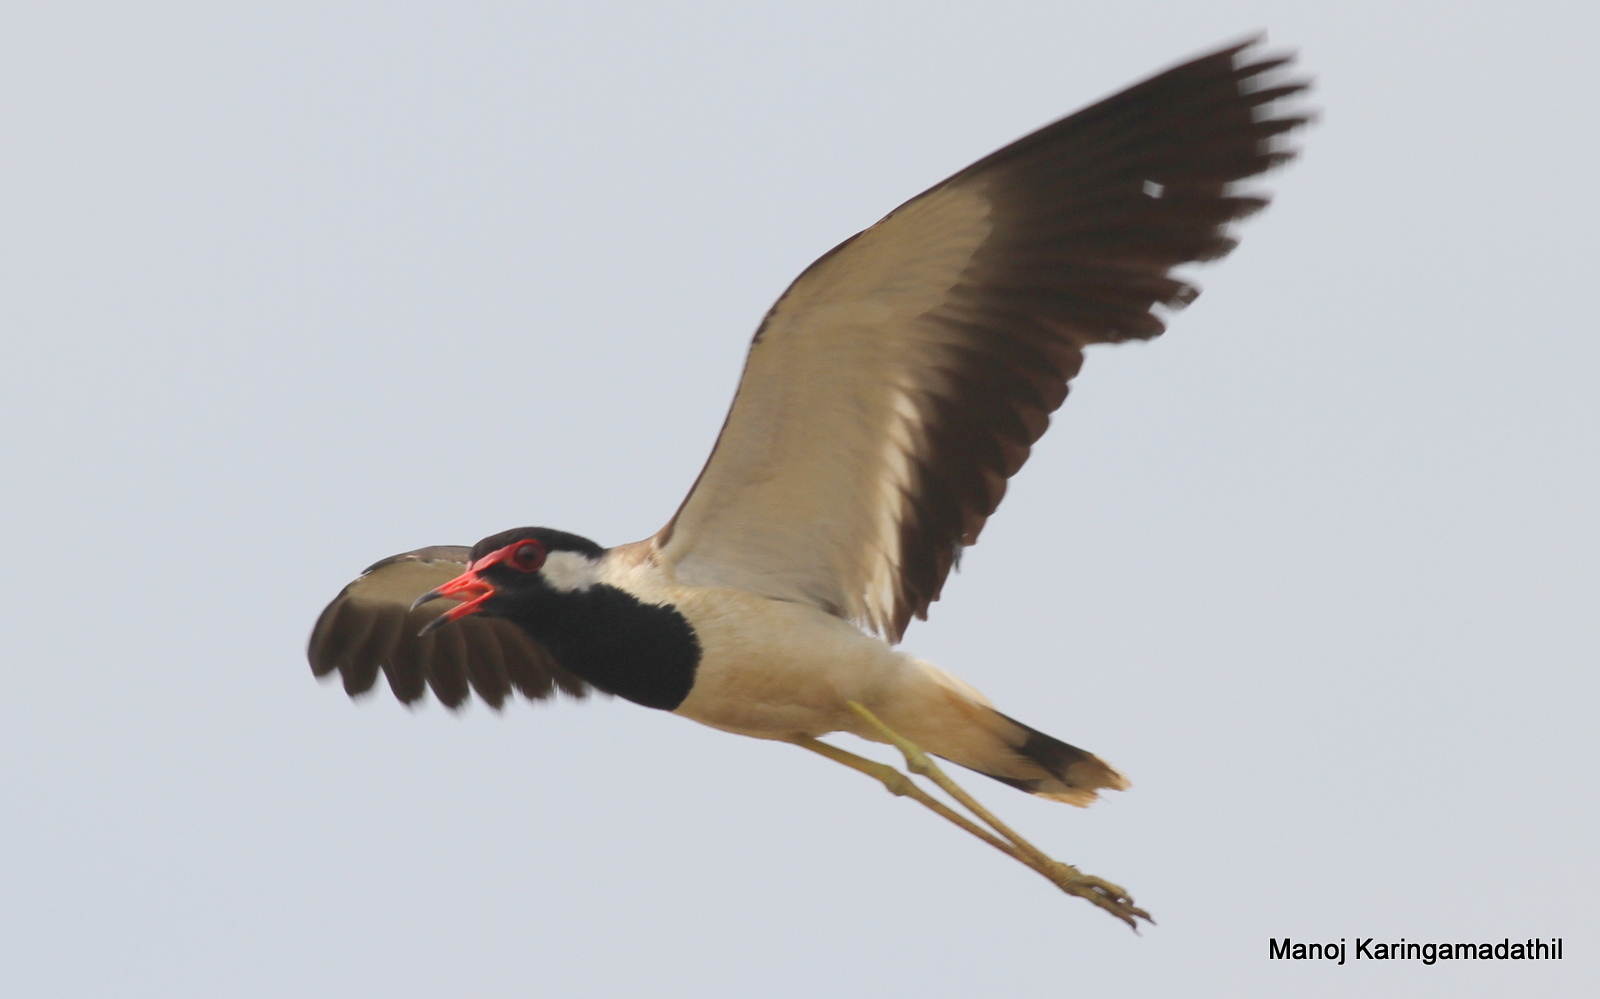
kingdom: Animalia
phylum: Chordata
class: Aves
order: Charadriiformes
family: Charadriidae
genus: Vanellus
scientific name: Vanellus indicus
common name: Red-wattled lapwing
